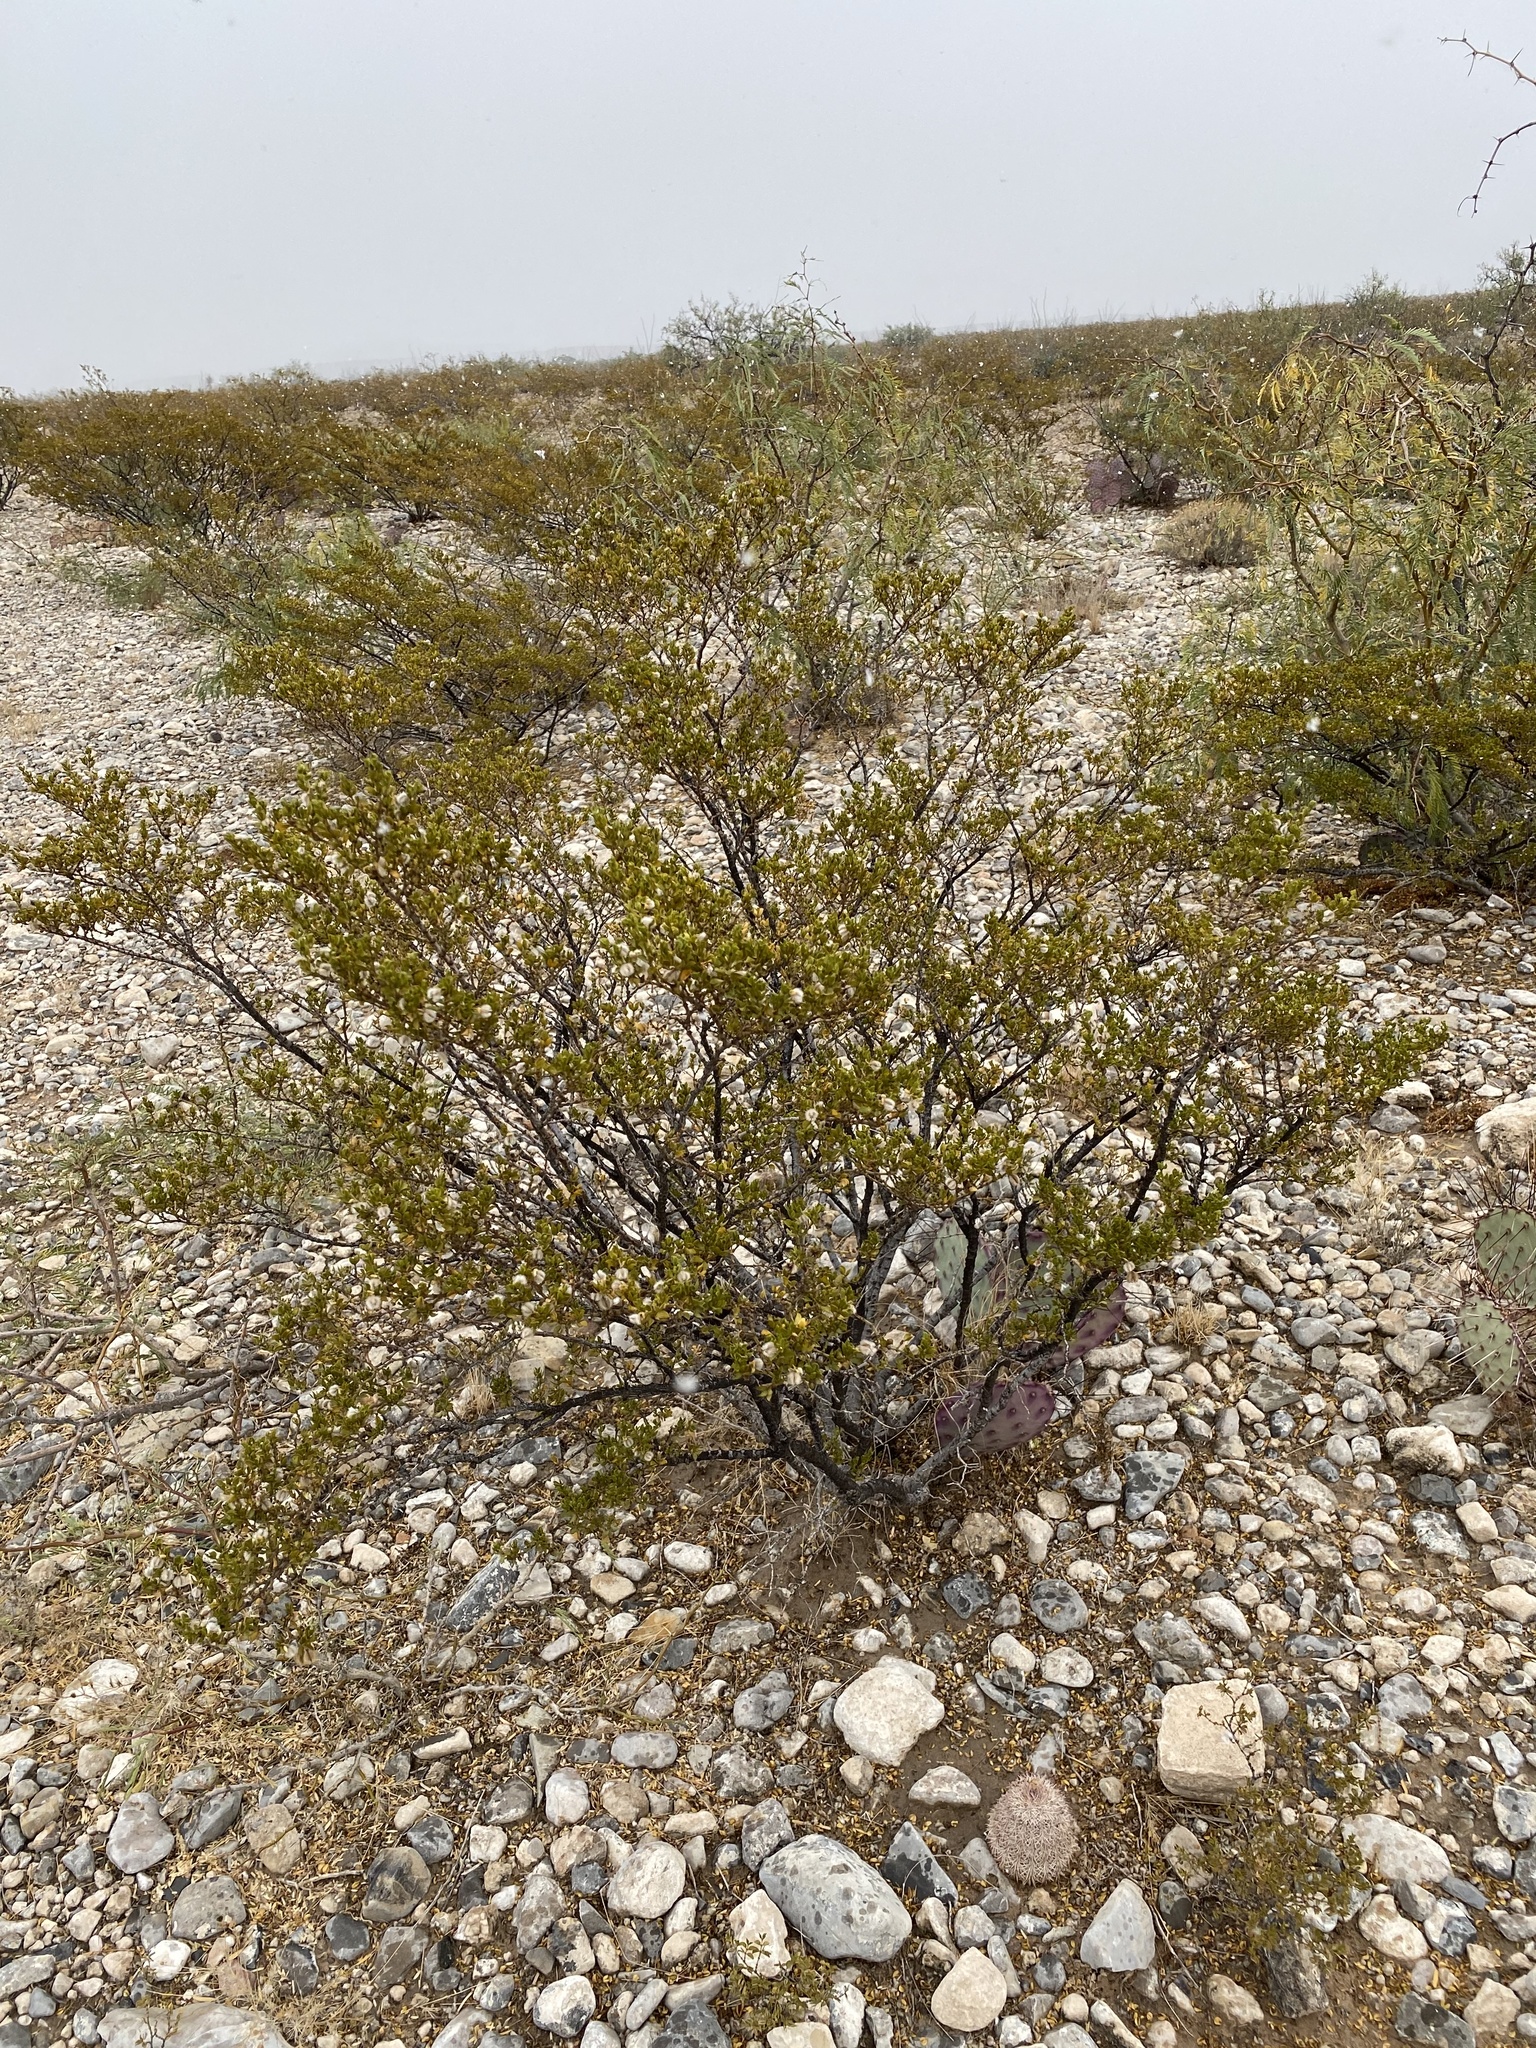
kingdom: Plantae
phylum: Tracheophyta
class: Magnoliopsida
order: Zygophyllales
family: Zygophyllaceae
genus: Larrea
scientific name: Larrea tridentata
